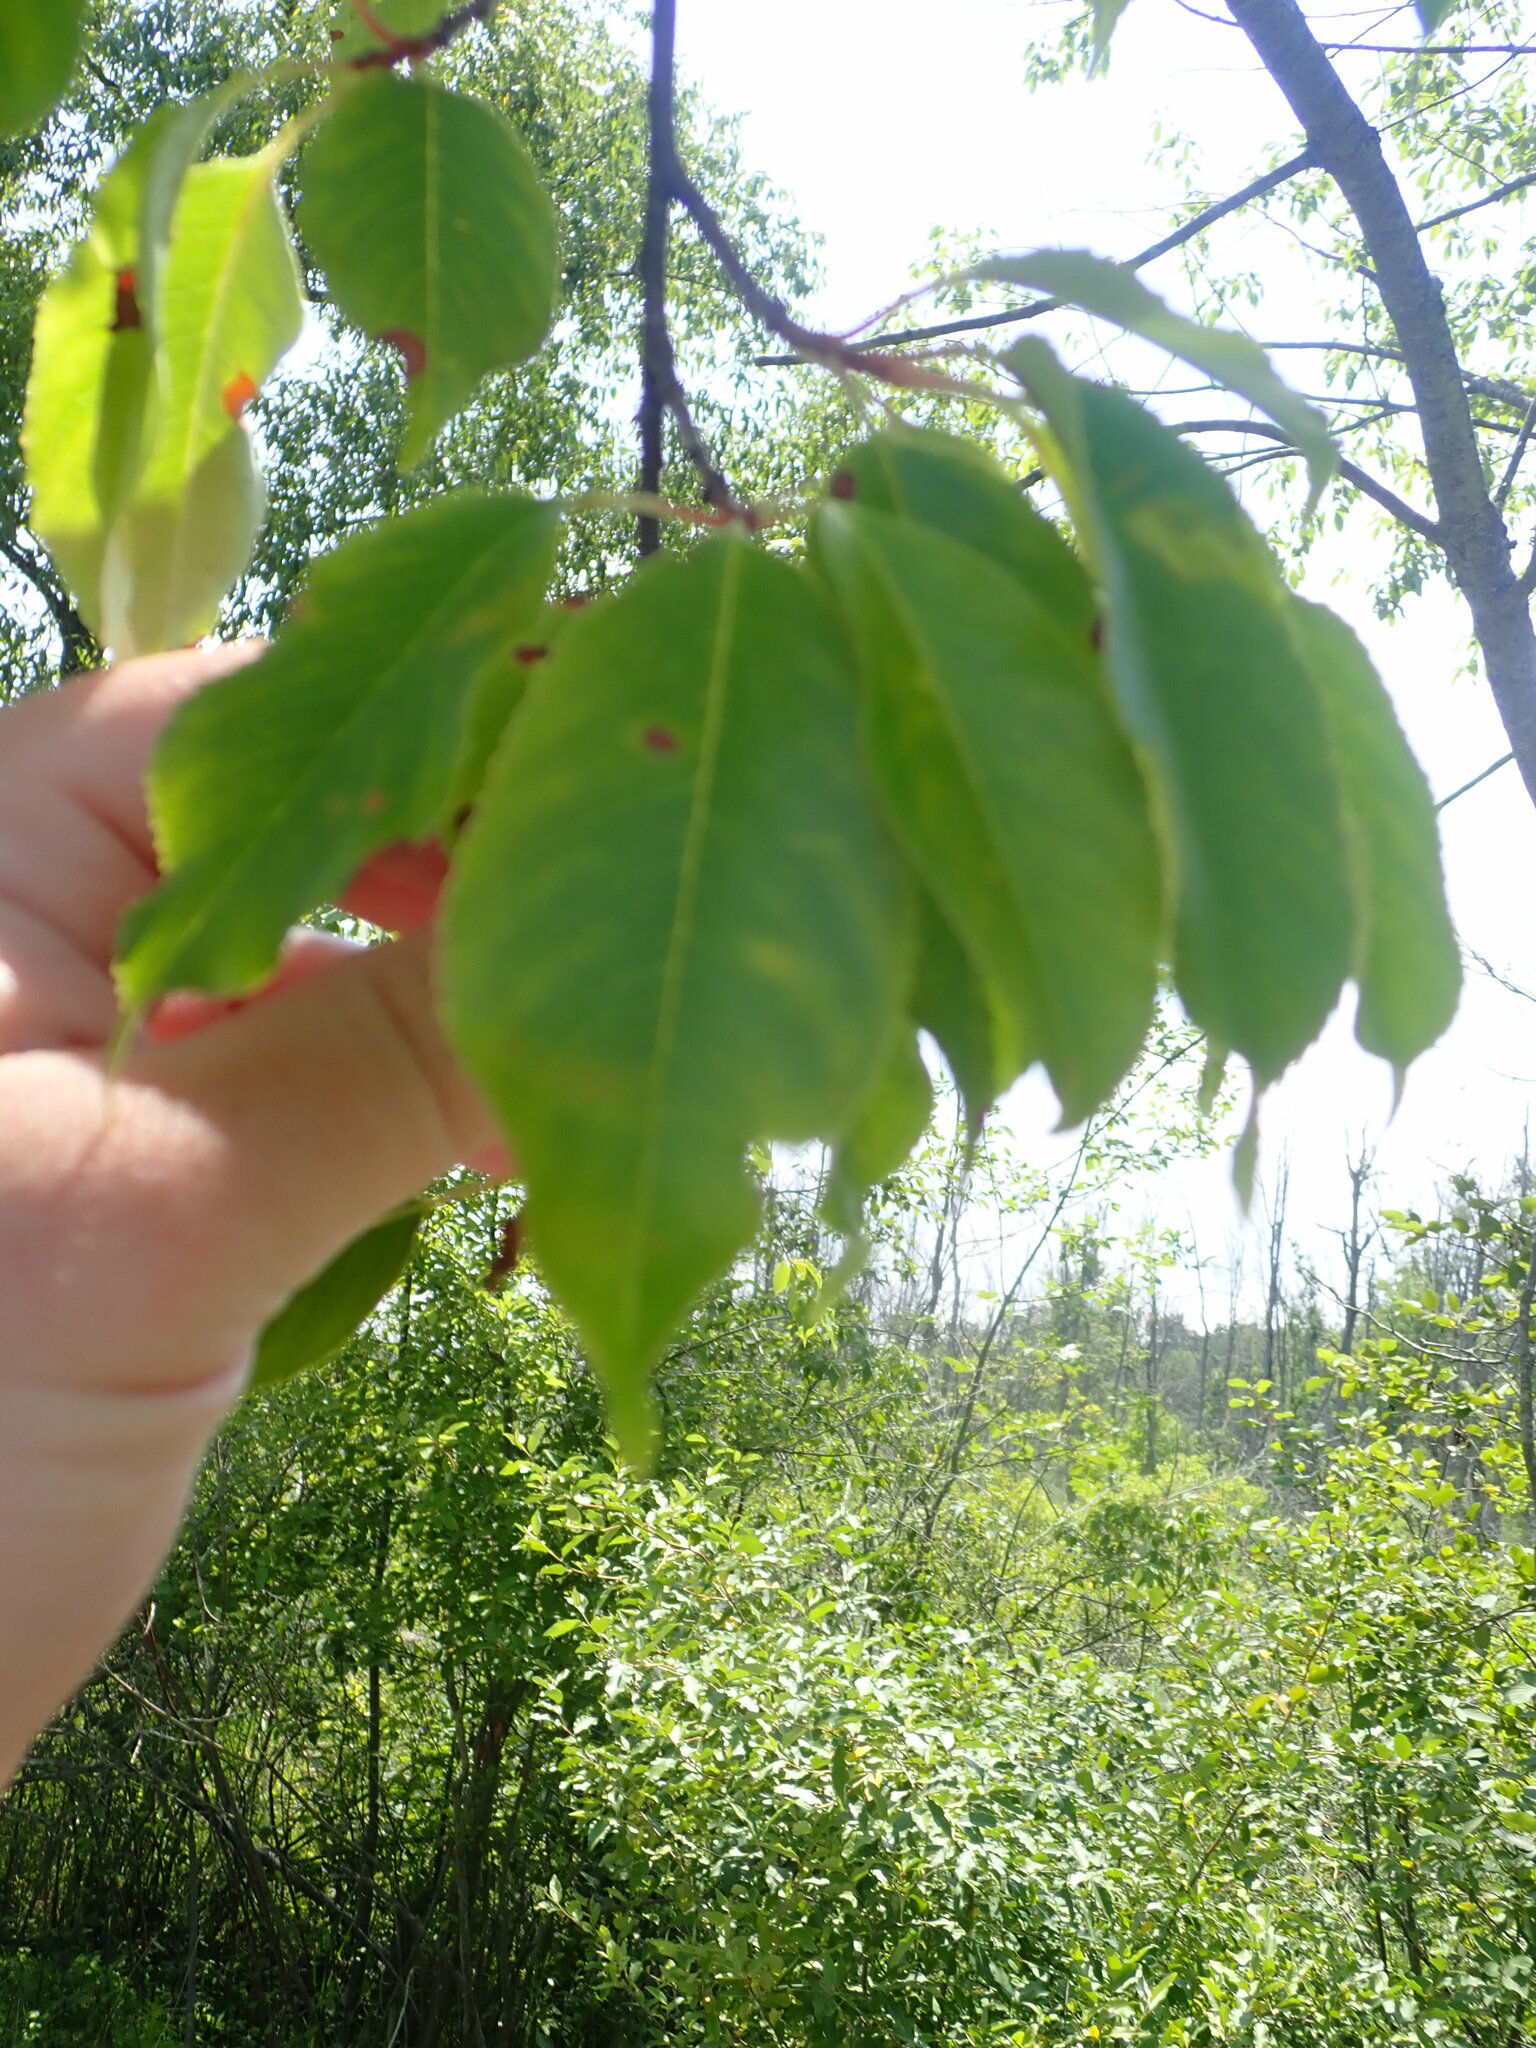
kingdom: Plantae
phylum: Tracheophyta
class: Magnoliopsida
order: Rosales
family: Rosaceae
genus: Prunus
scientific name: Prunus serotina
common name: Black cherry
